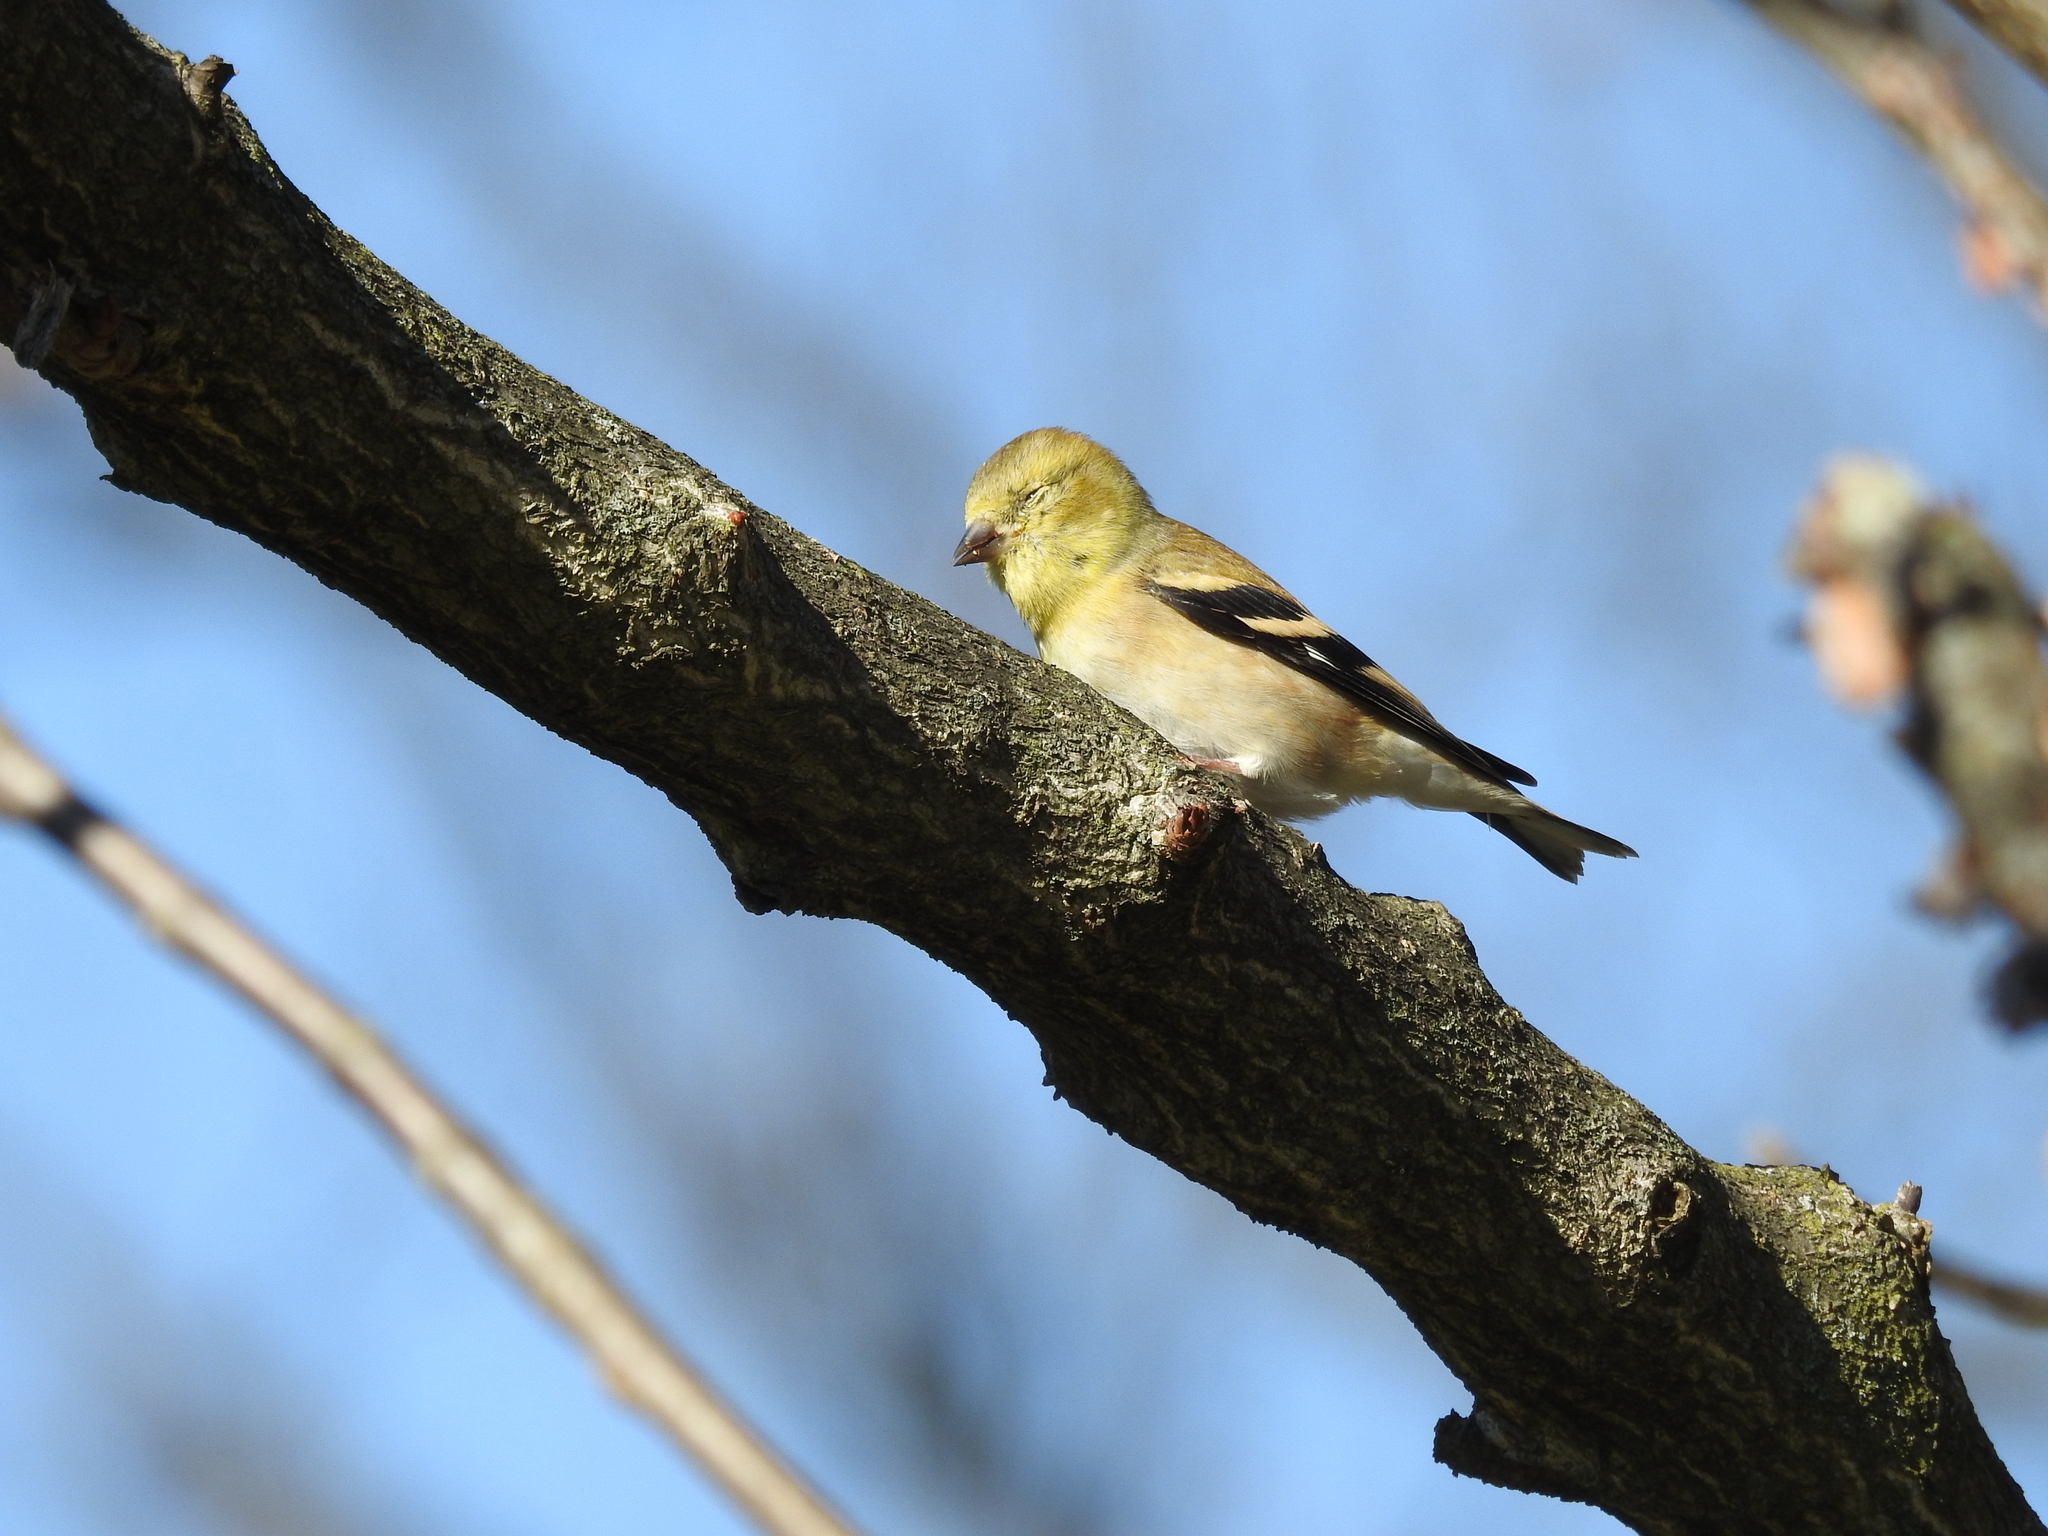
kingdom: Animalia
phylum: Chordata
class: Aves
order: Passeriformes
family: Fringillidae
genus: Spinus
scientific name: Spinus tristis
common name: American goldfinch
